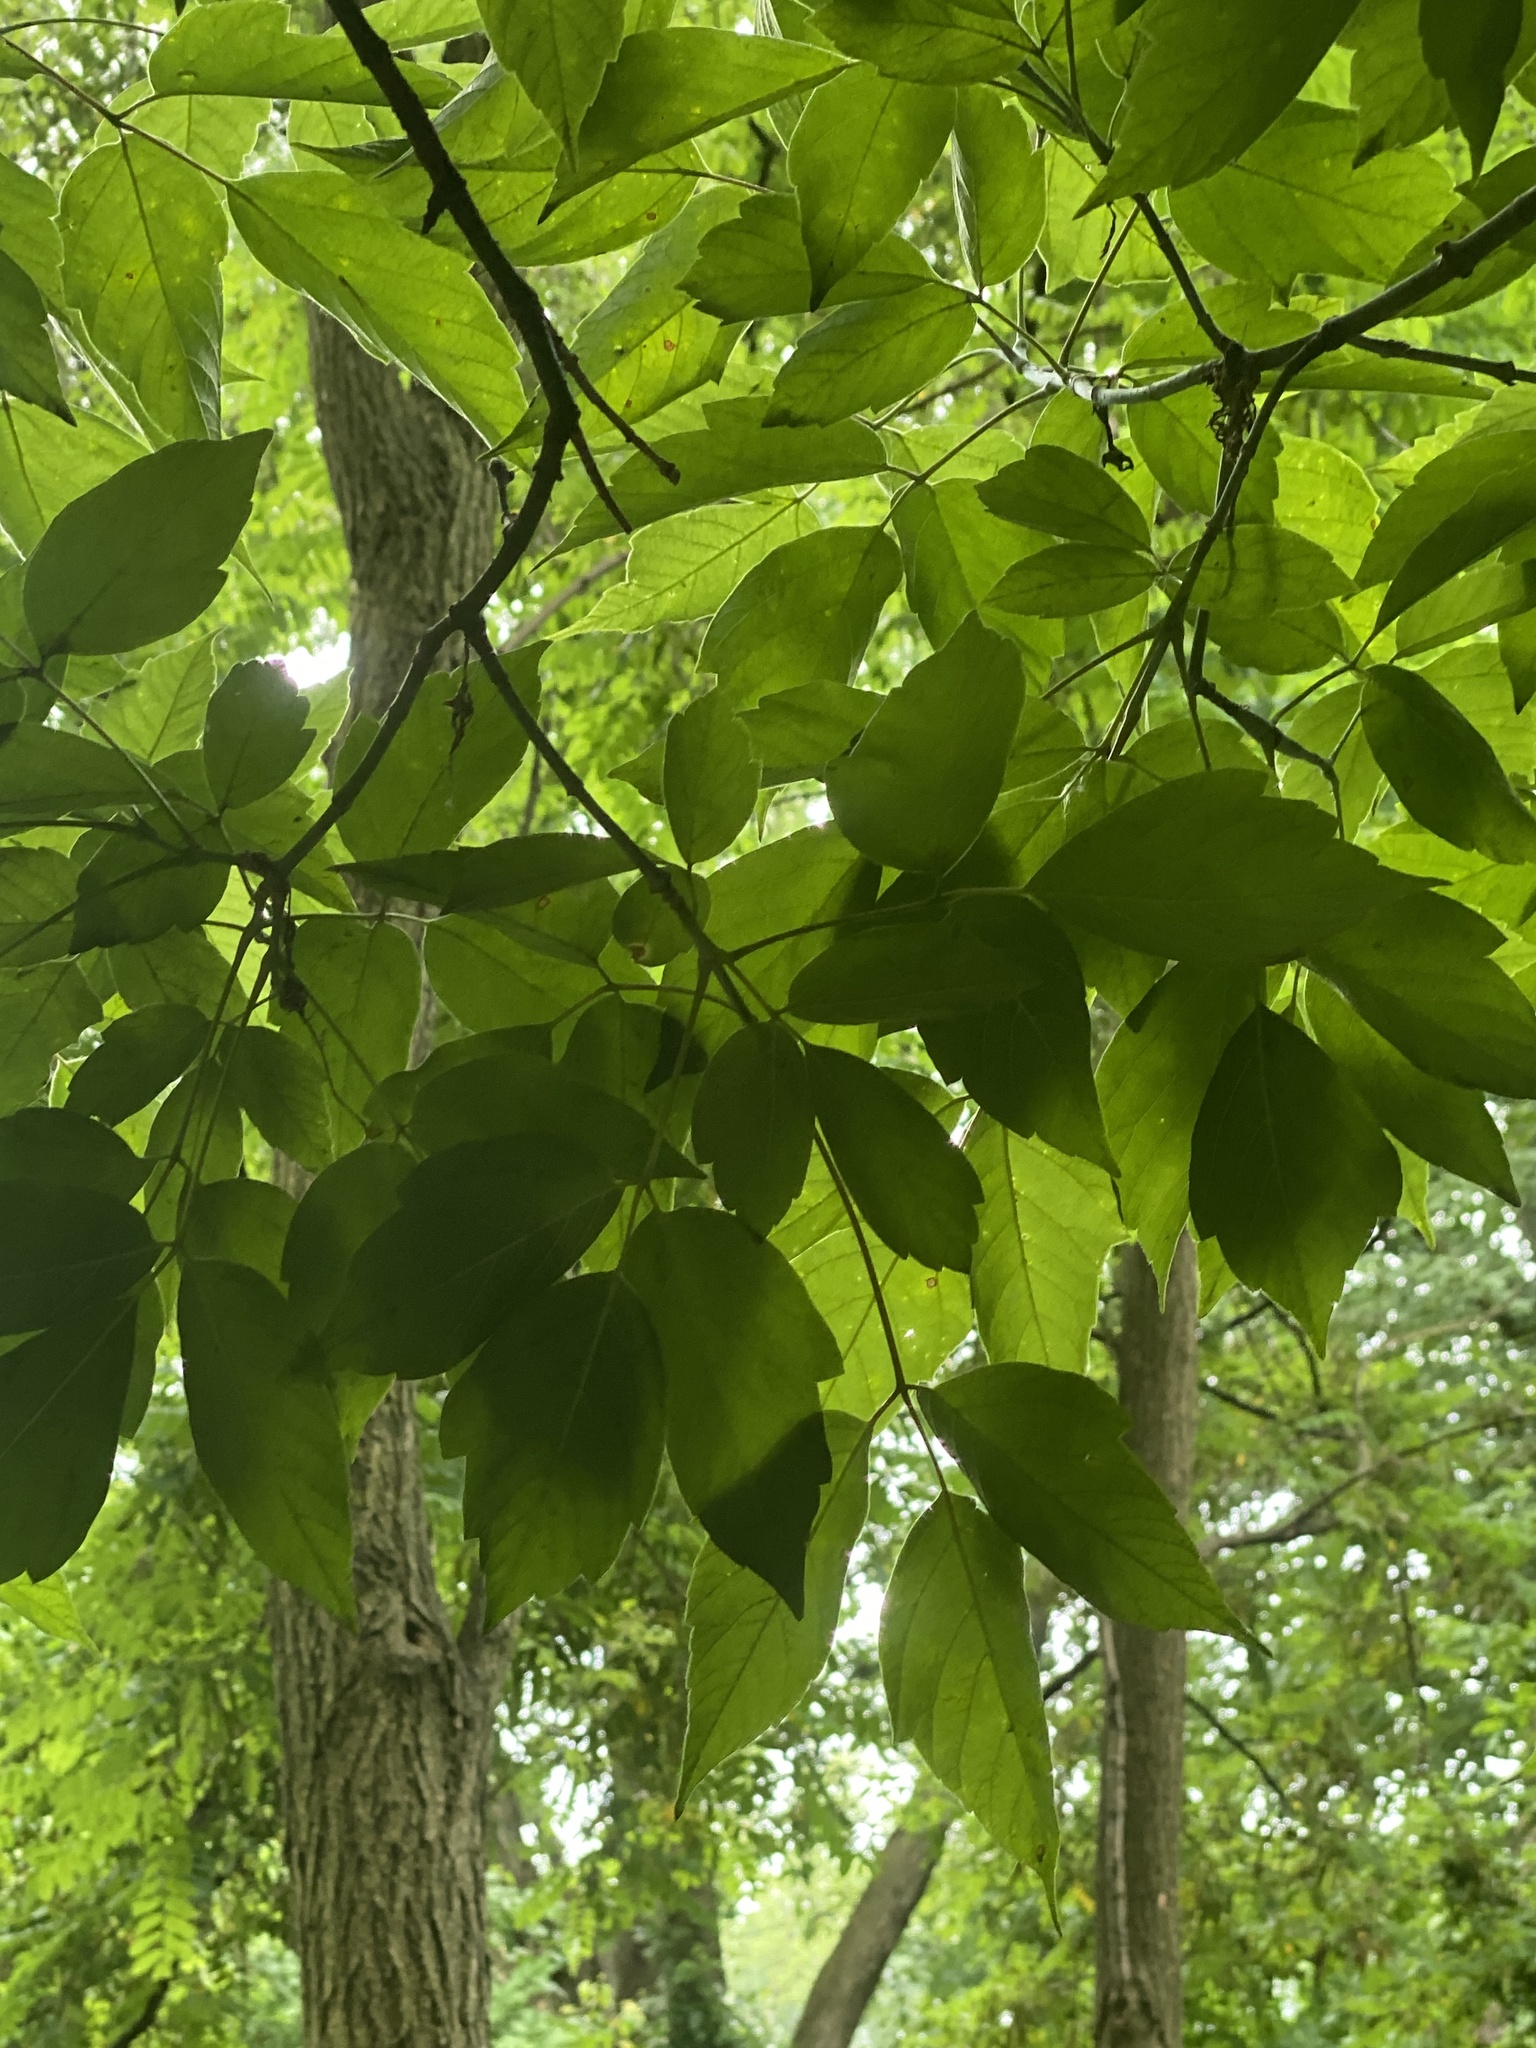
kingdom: Plantae
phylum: Tracheophyta
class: Magnoliopsida
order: Sapindales
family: Sapindaceae
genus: Acer
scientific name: Acer negundo
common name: Ashleaf maple
